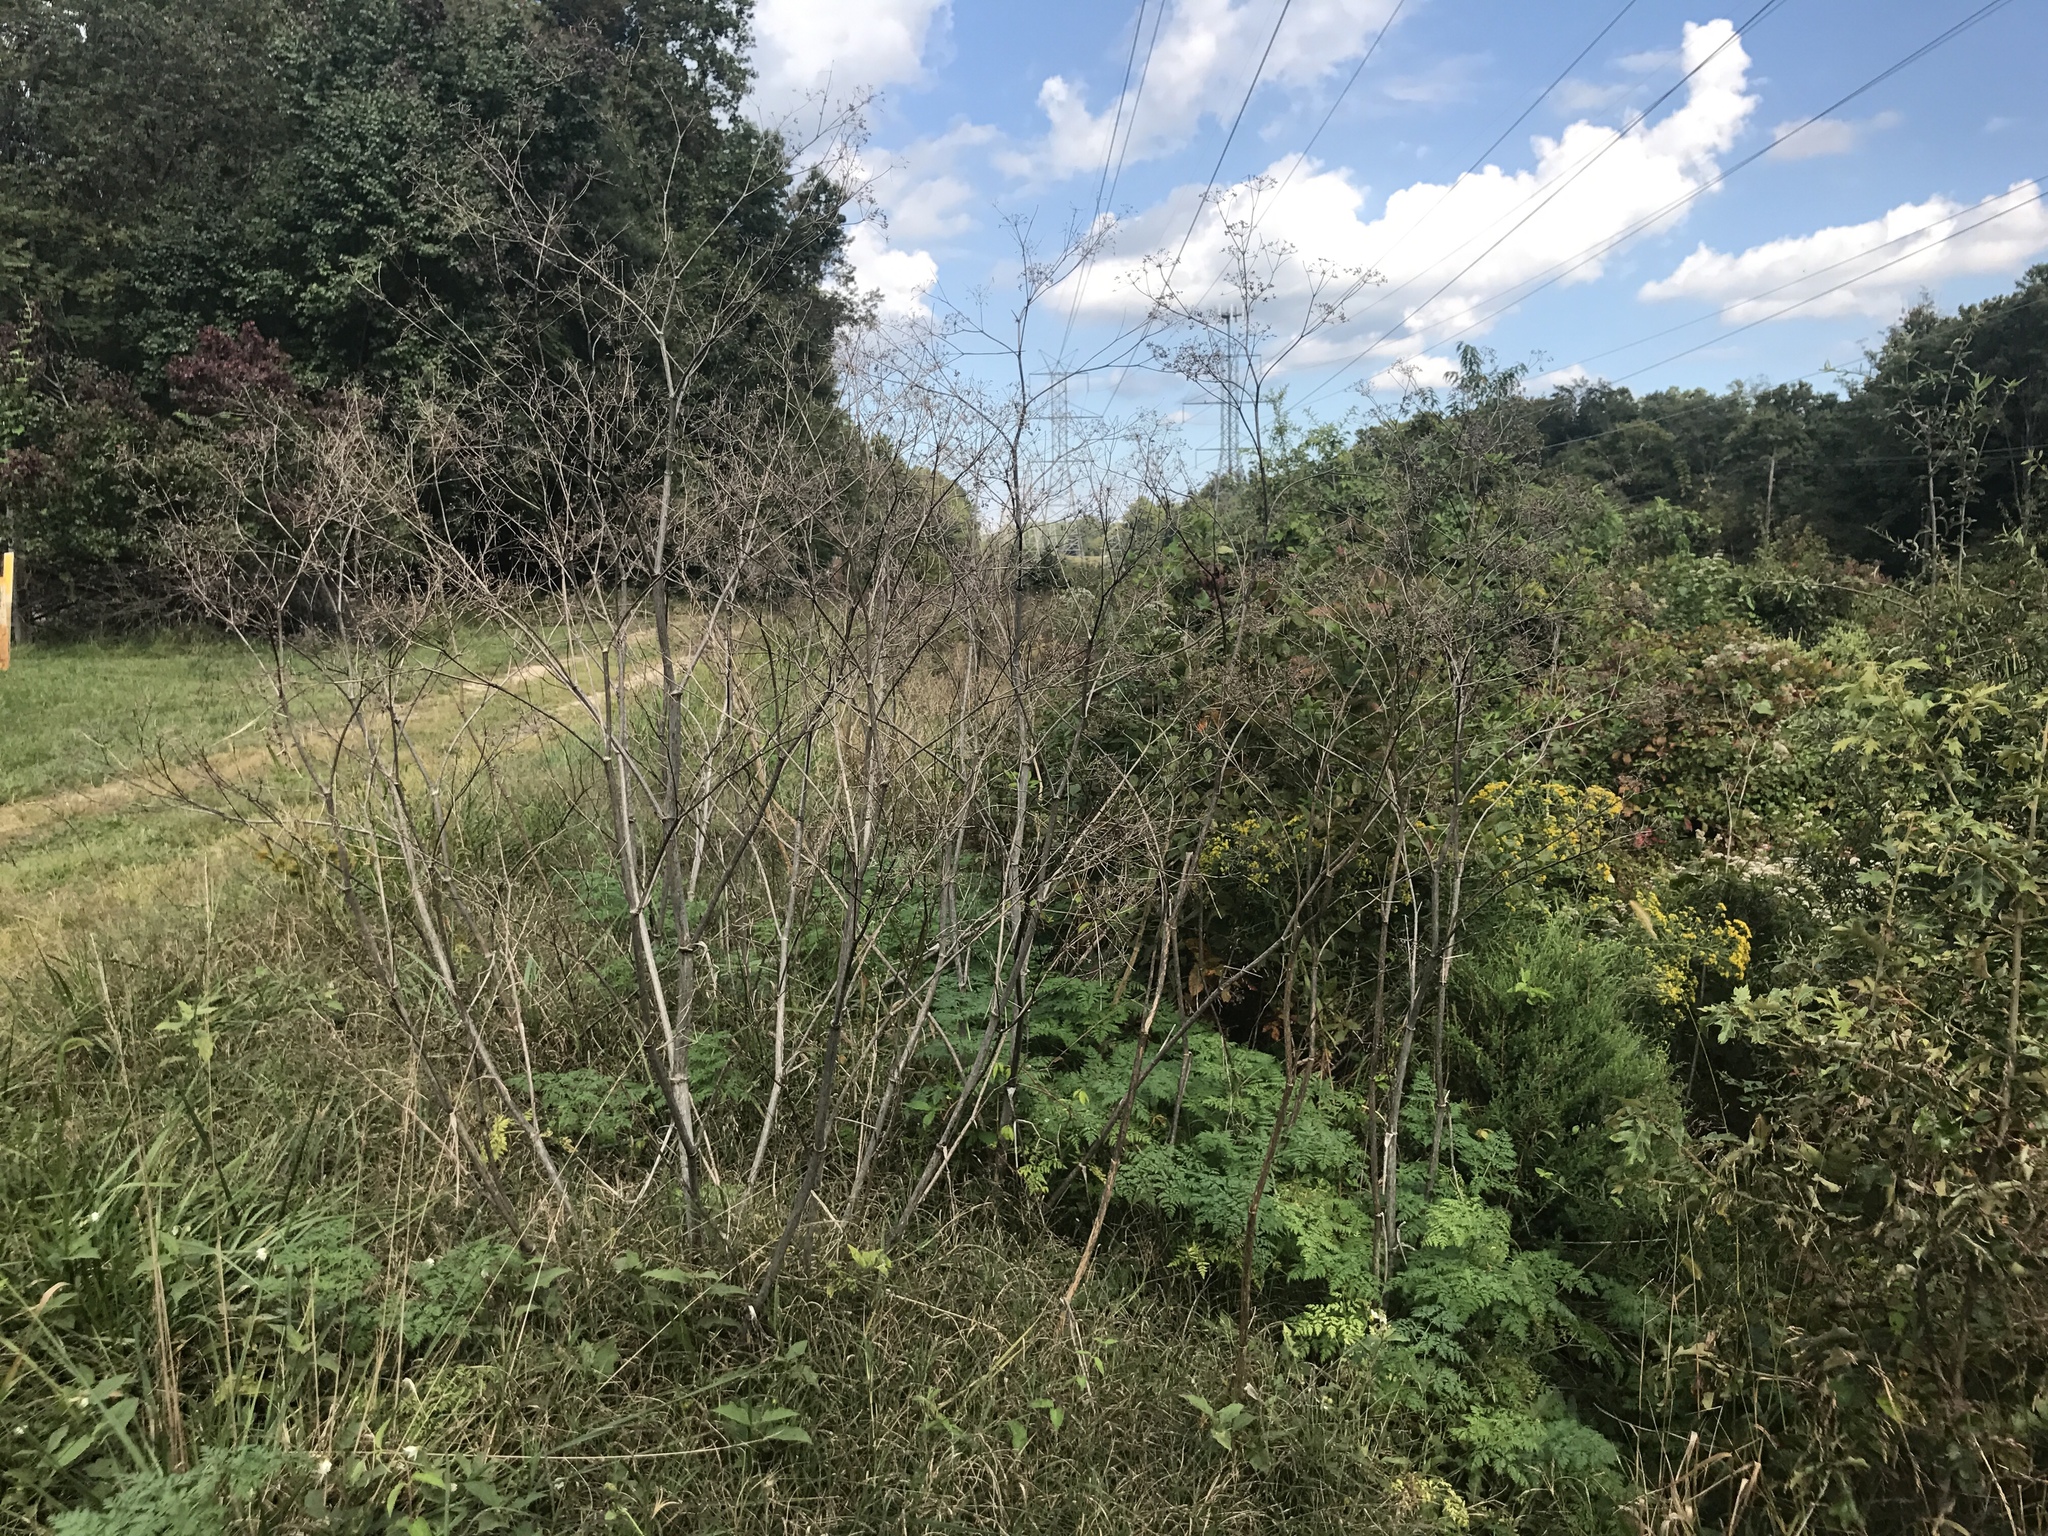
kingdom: Plantae
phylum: Tracheophyta
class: Magnoliopsida
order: Apiales
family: Apiaceae
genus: Conium
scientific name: Conium maculatum
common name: Hemlock
